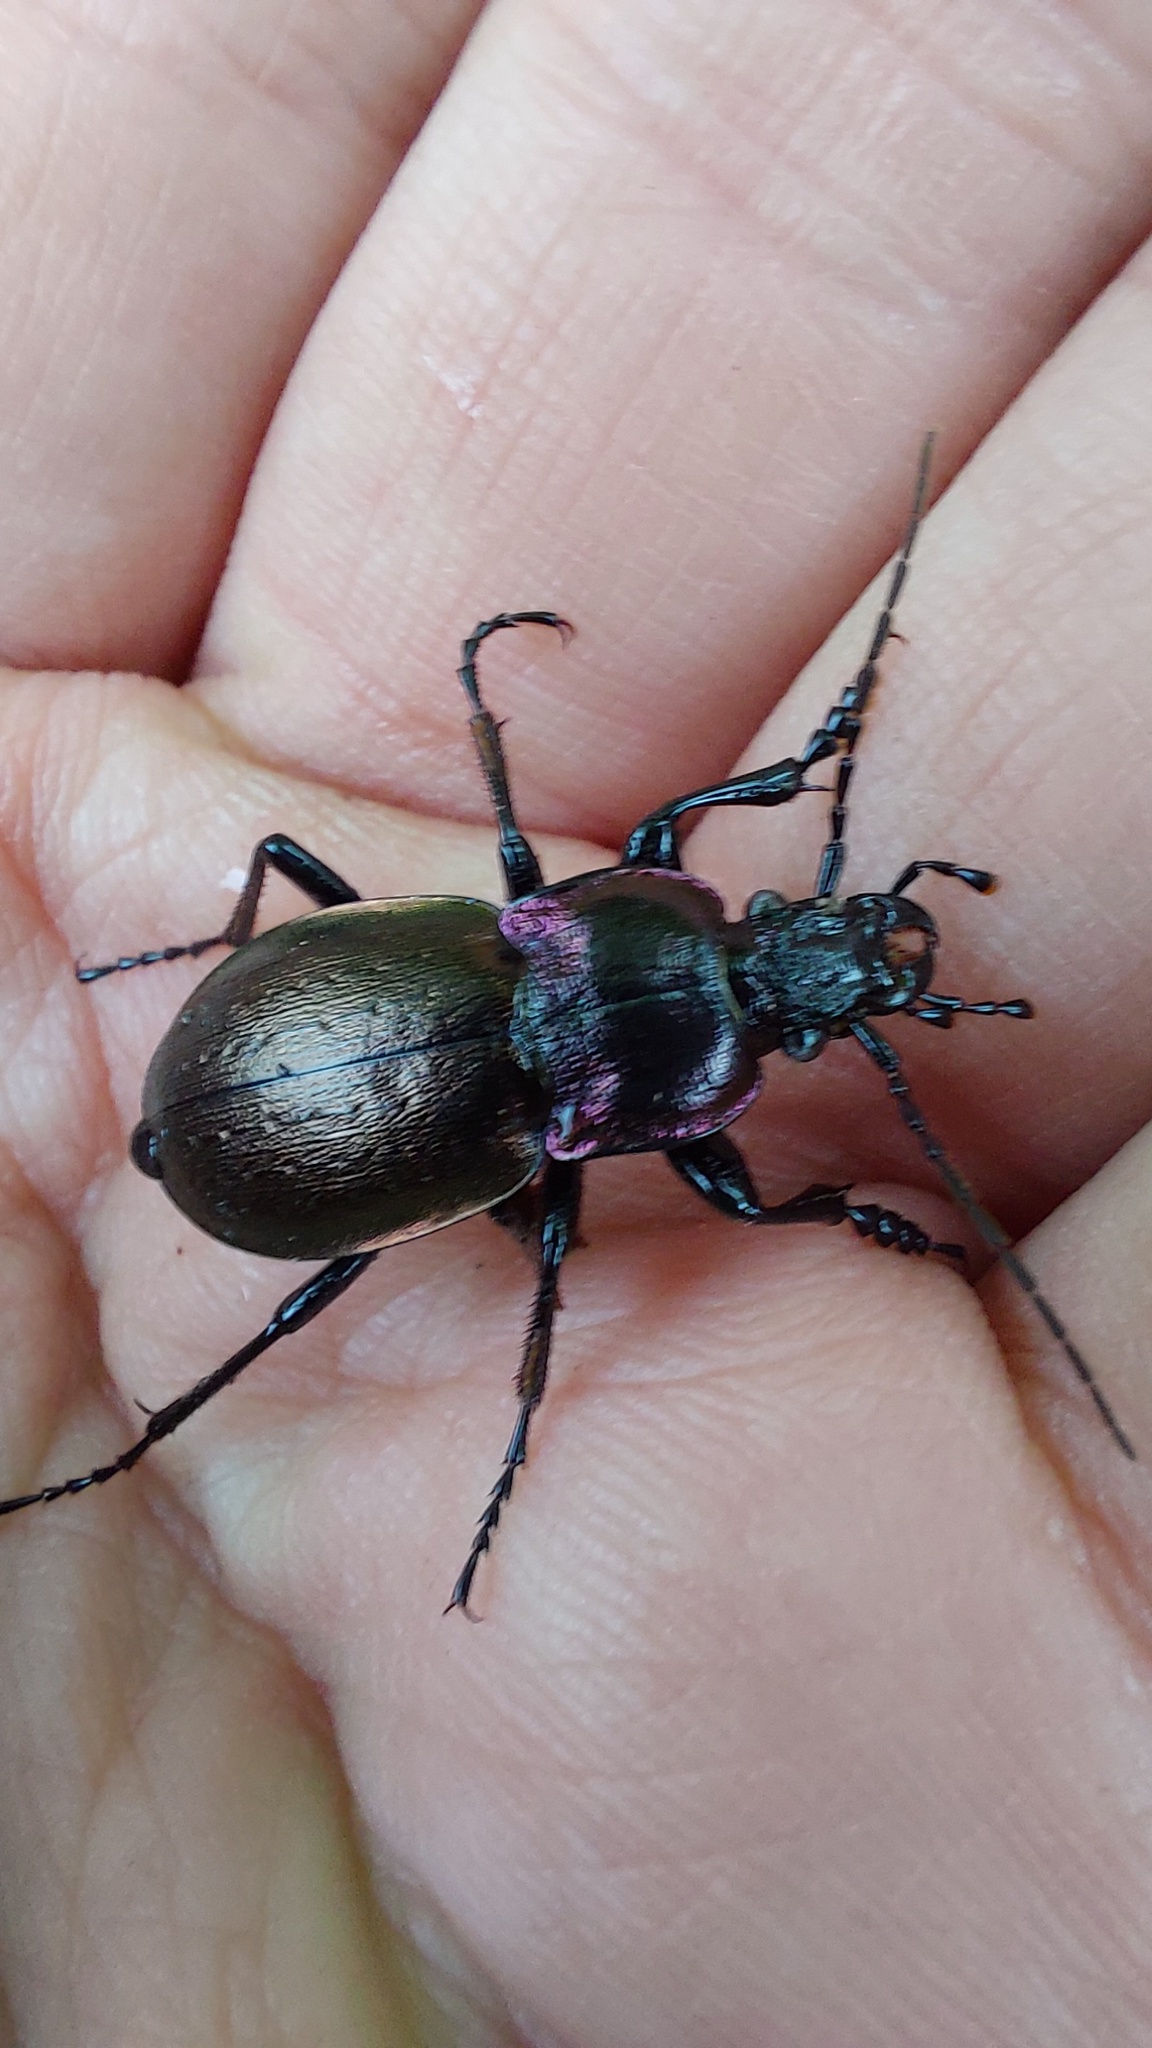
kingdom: Animalia
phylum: Arthropoda
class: Insecta
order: Coleoptera
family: Carabidae
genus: Carabus
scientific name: Carabus nemoralis
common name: European ground beetle
